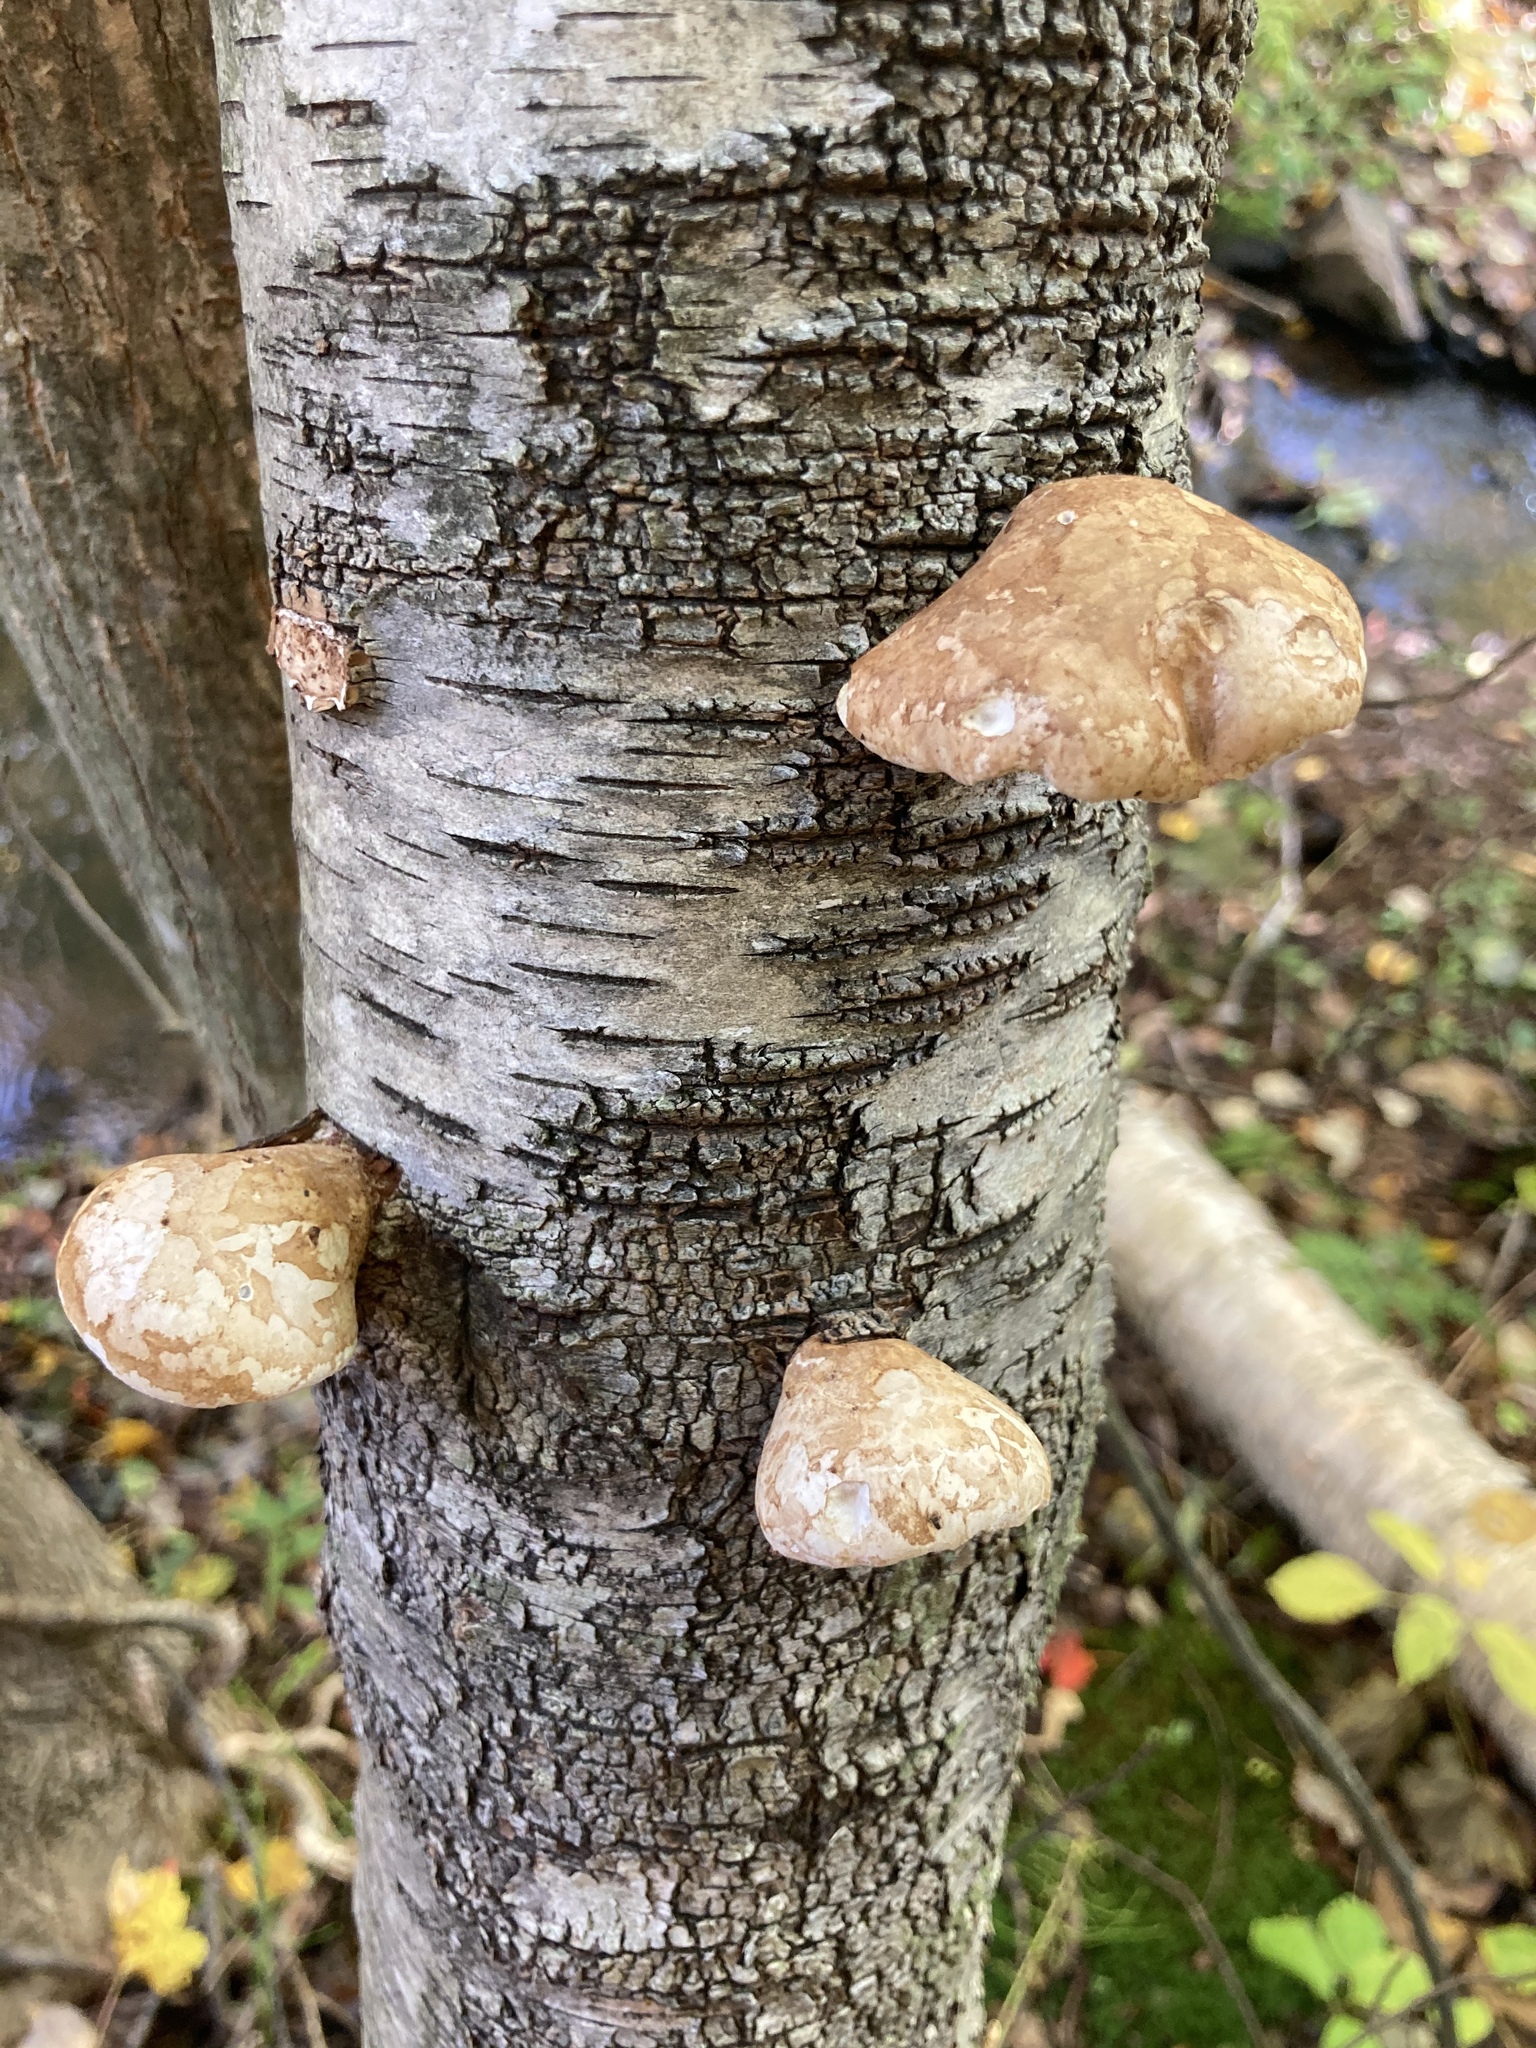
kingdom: Fungi
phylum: Basidiomycota
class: Agaricomycetes
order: Polyporales
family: Fomitopsidaceae
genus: Fomitopsis
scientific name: Fomitopsis betulina
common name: Birch polypore
